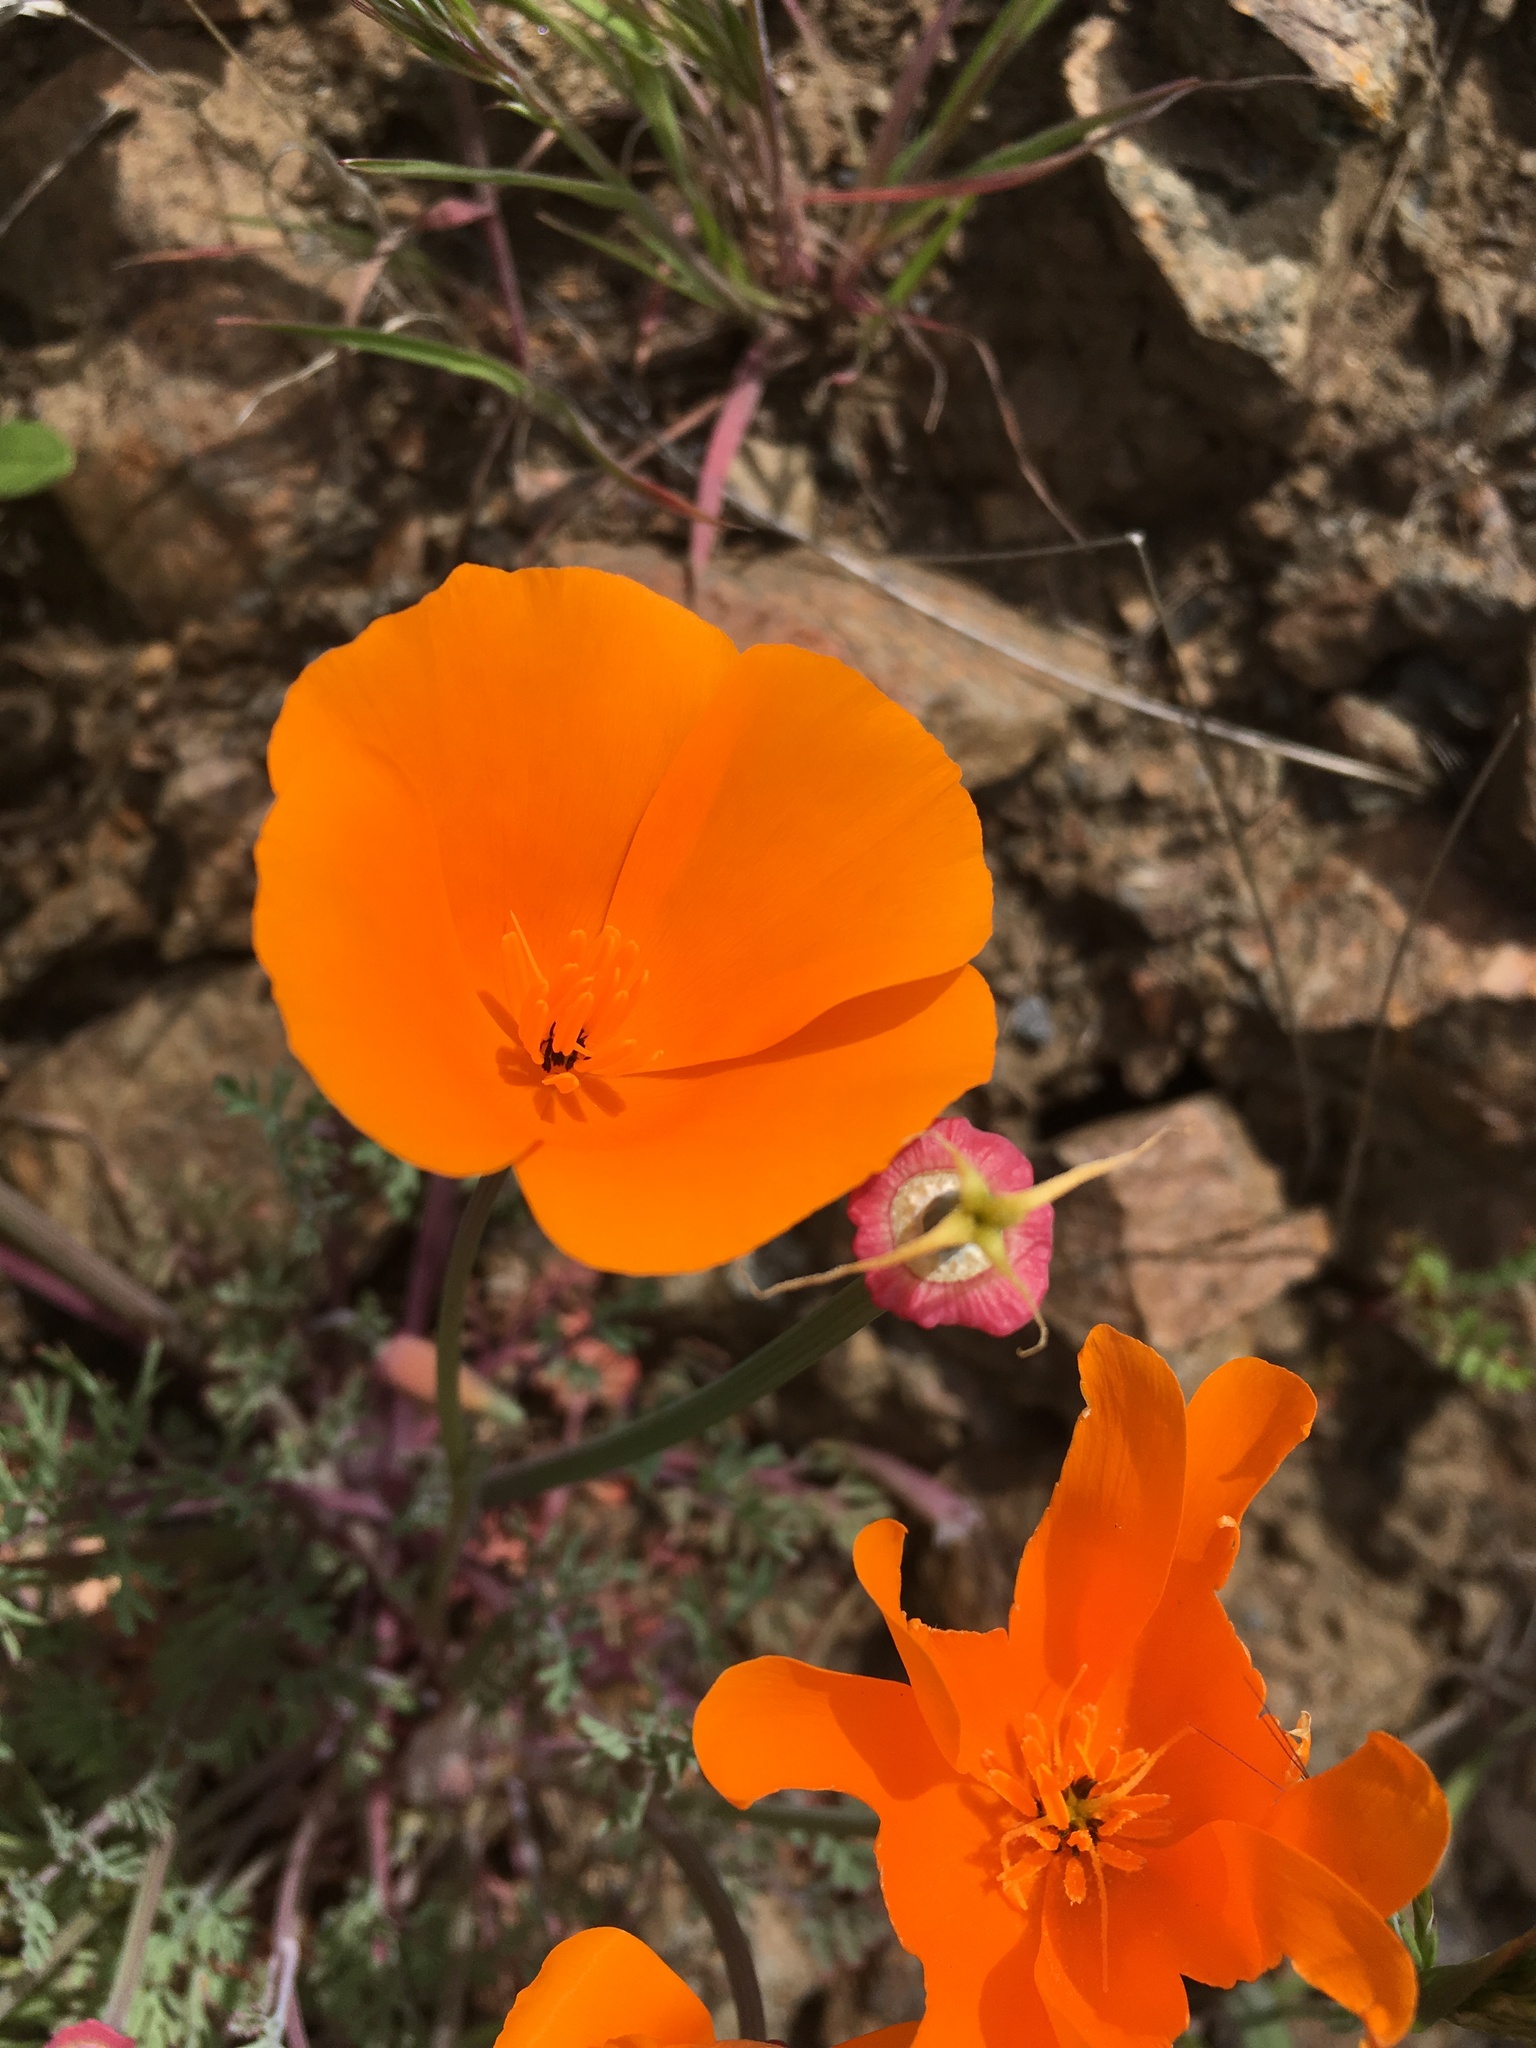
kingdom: Plantae
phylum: Tracheophyta
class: Magnoliopsida
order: Ranunculales
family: Papaveraceae
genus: Eschscholzia
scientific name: Eschscholzia californica
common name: California poppy
